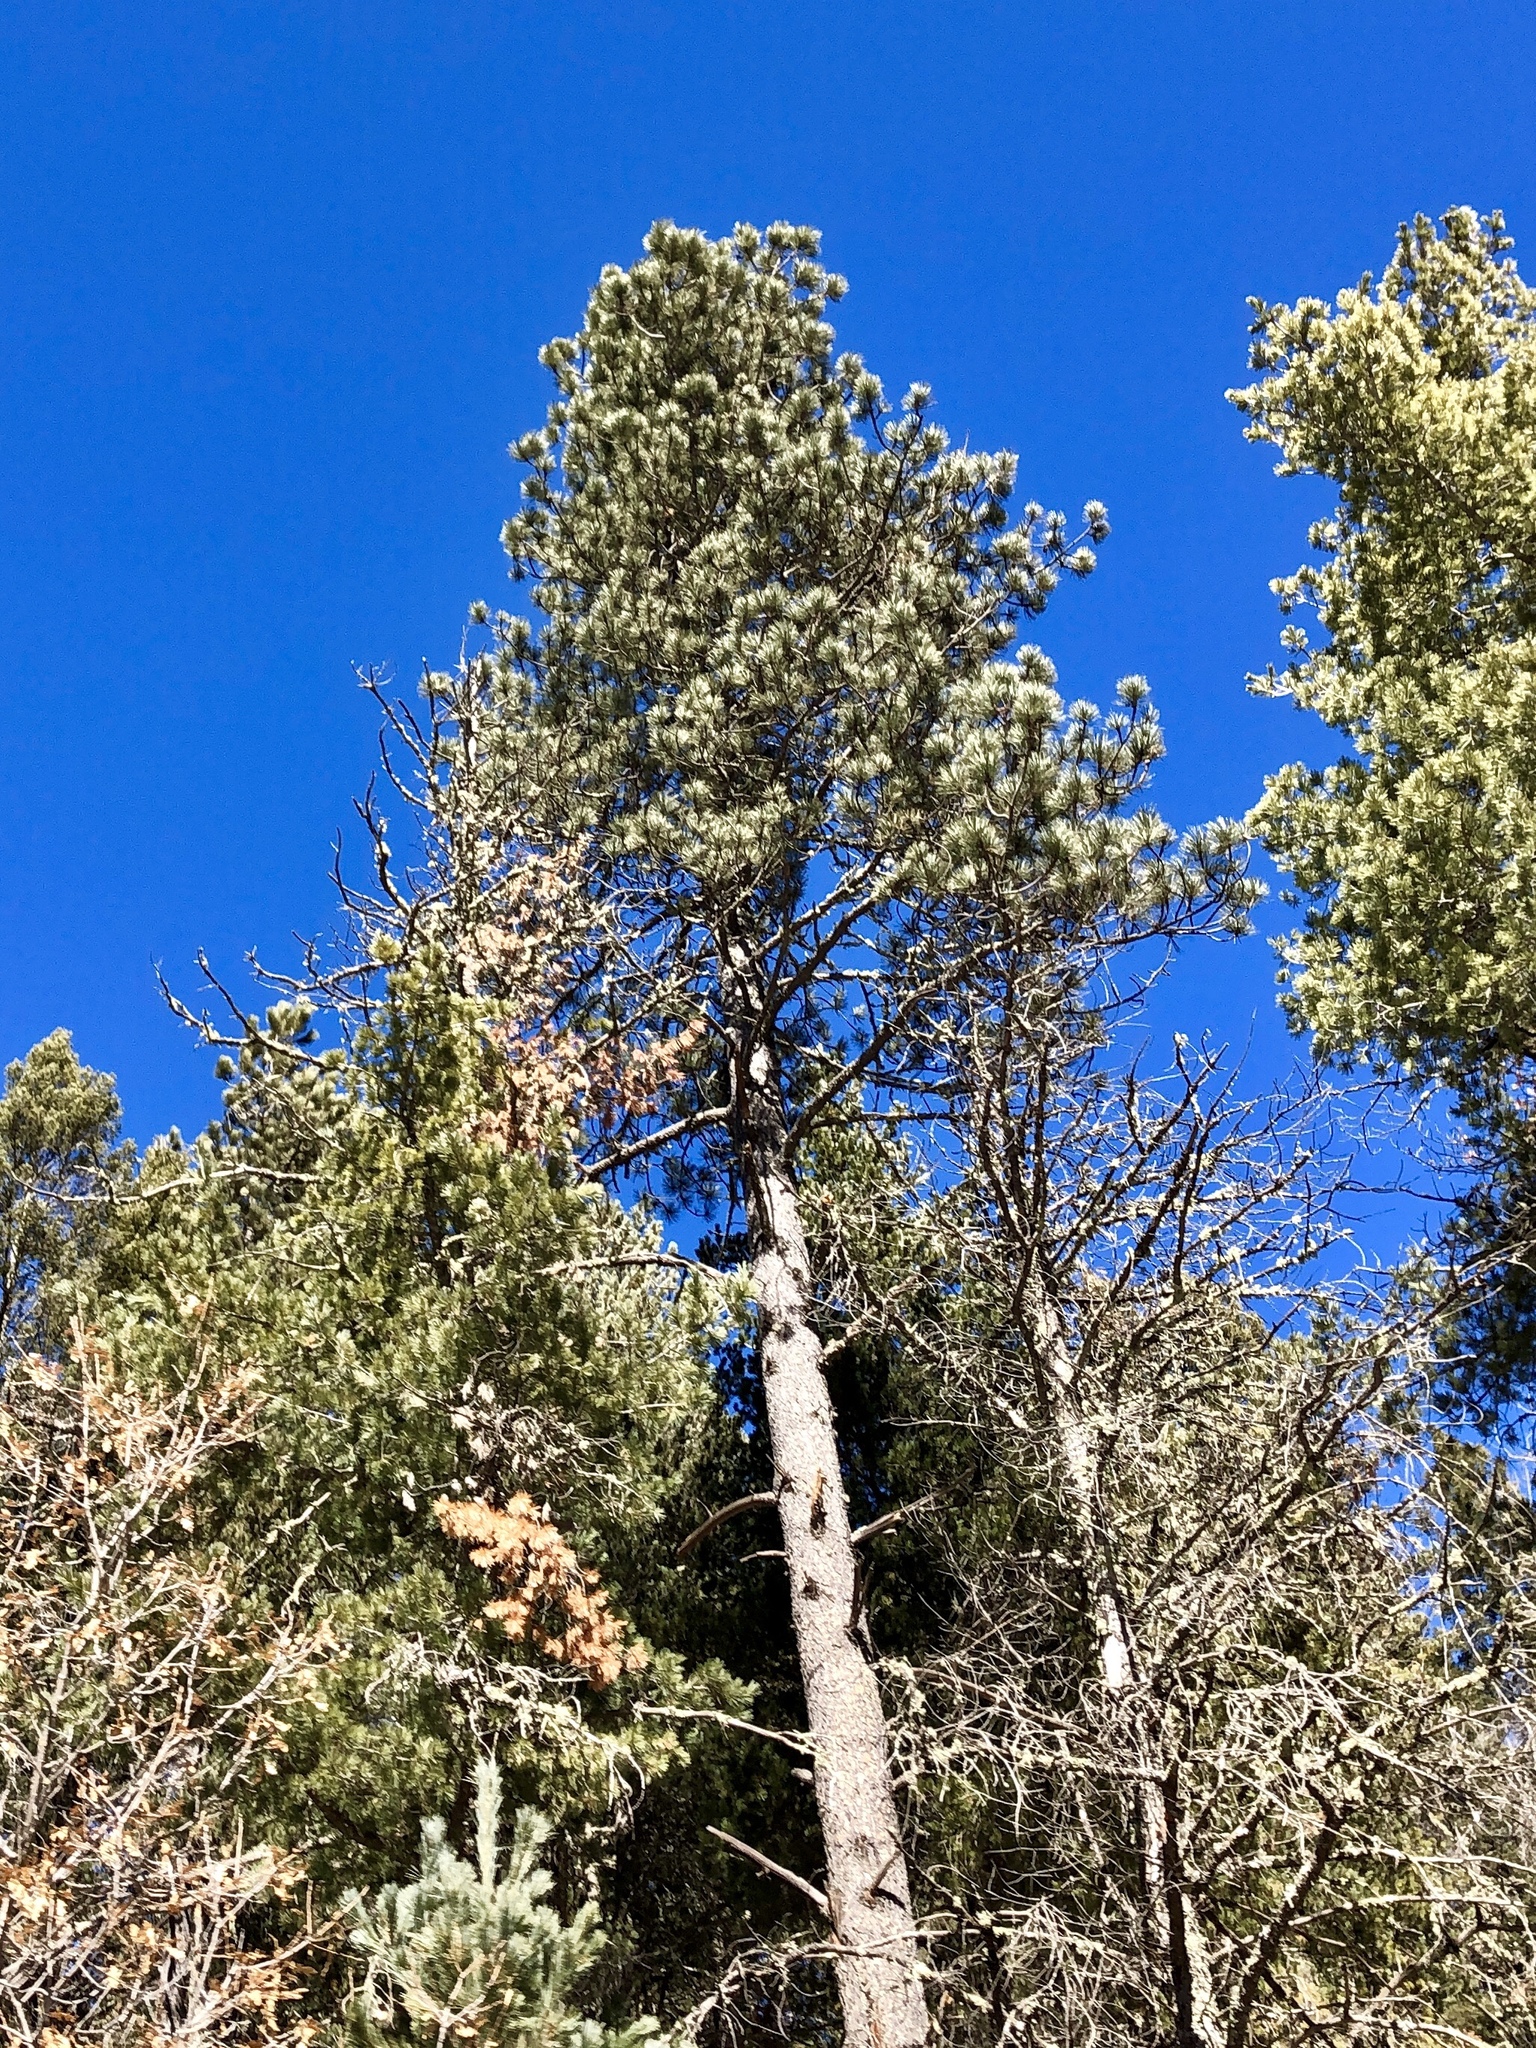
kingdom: Plantae
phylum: Tracheophyta
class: Pinopsida
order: Pinales
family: Pinaceae
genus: Pinus
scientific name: Pinus ponderosa
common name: Western yellow-pine
